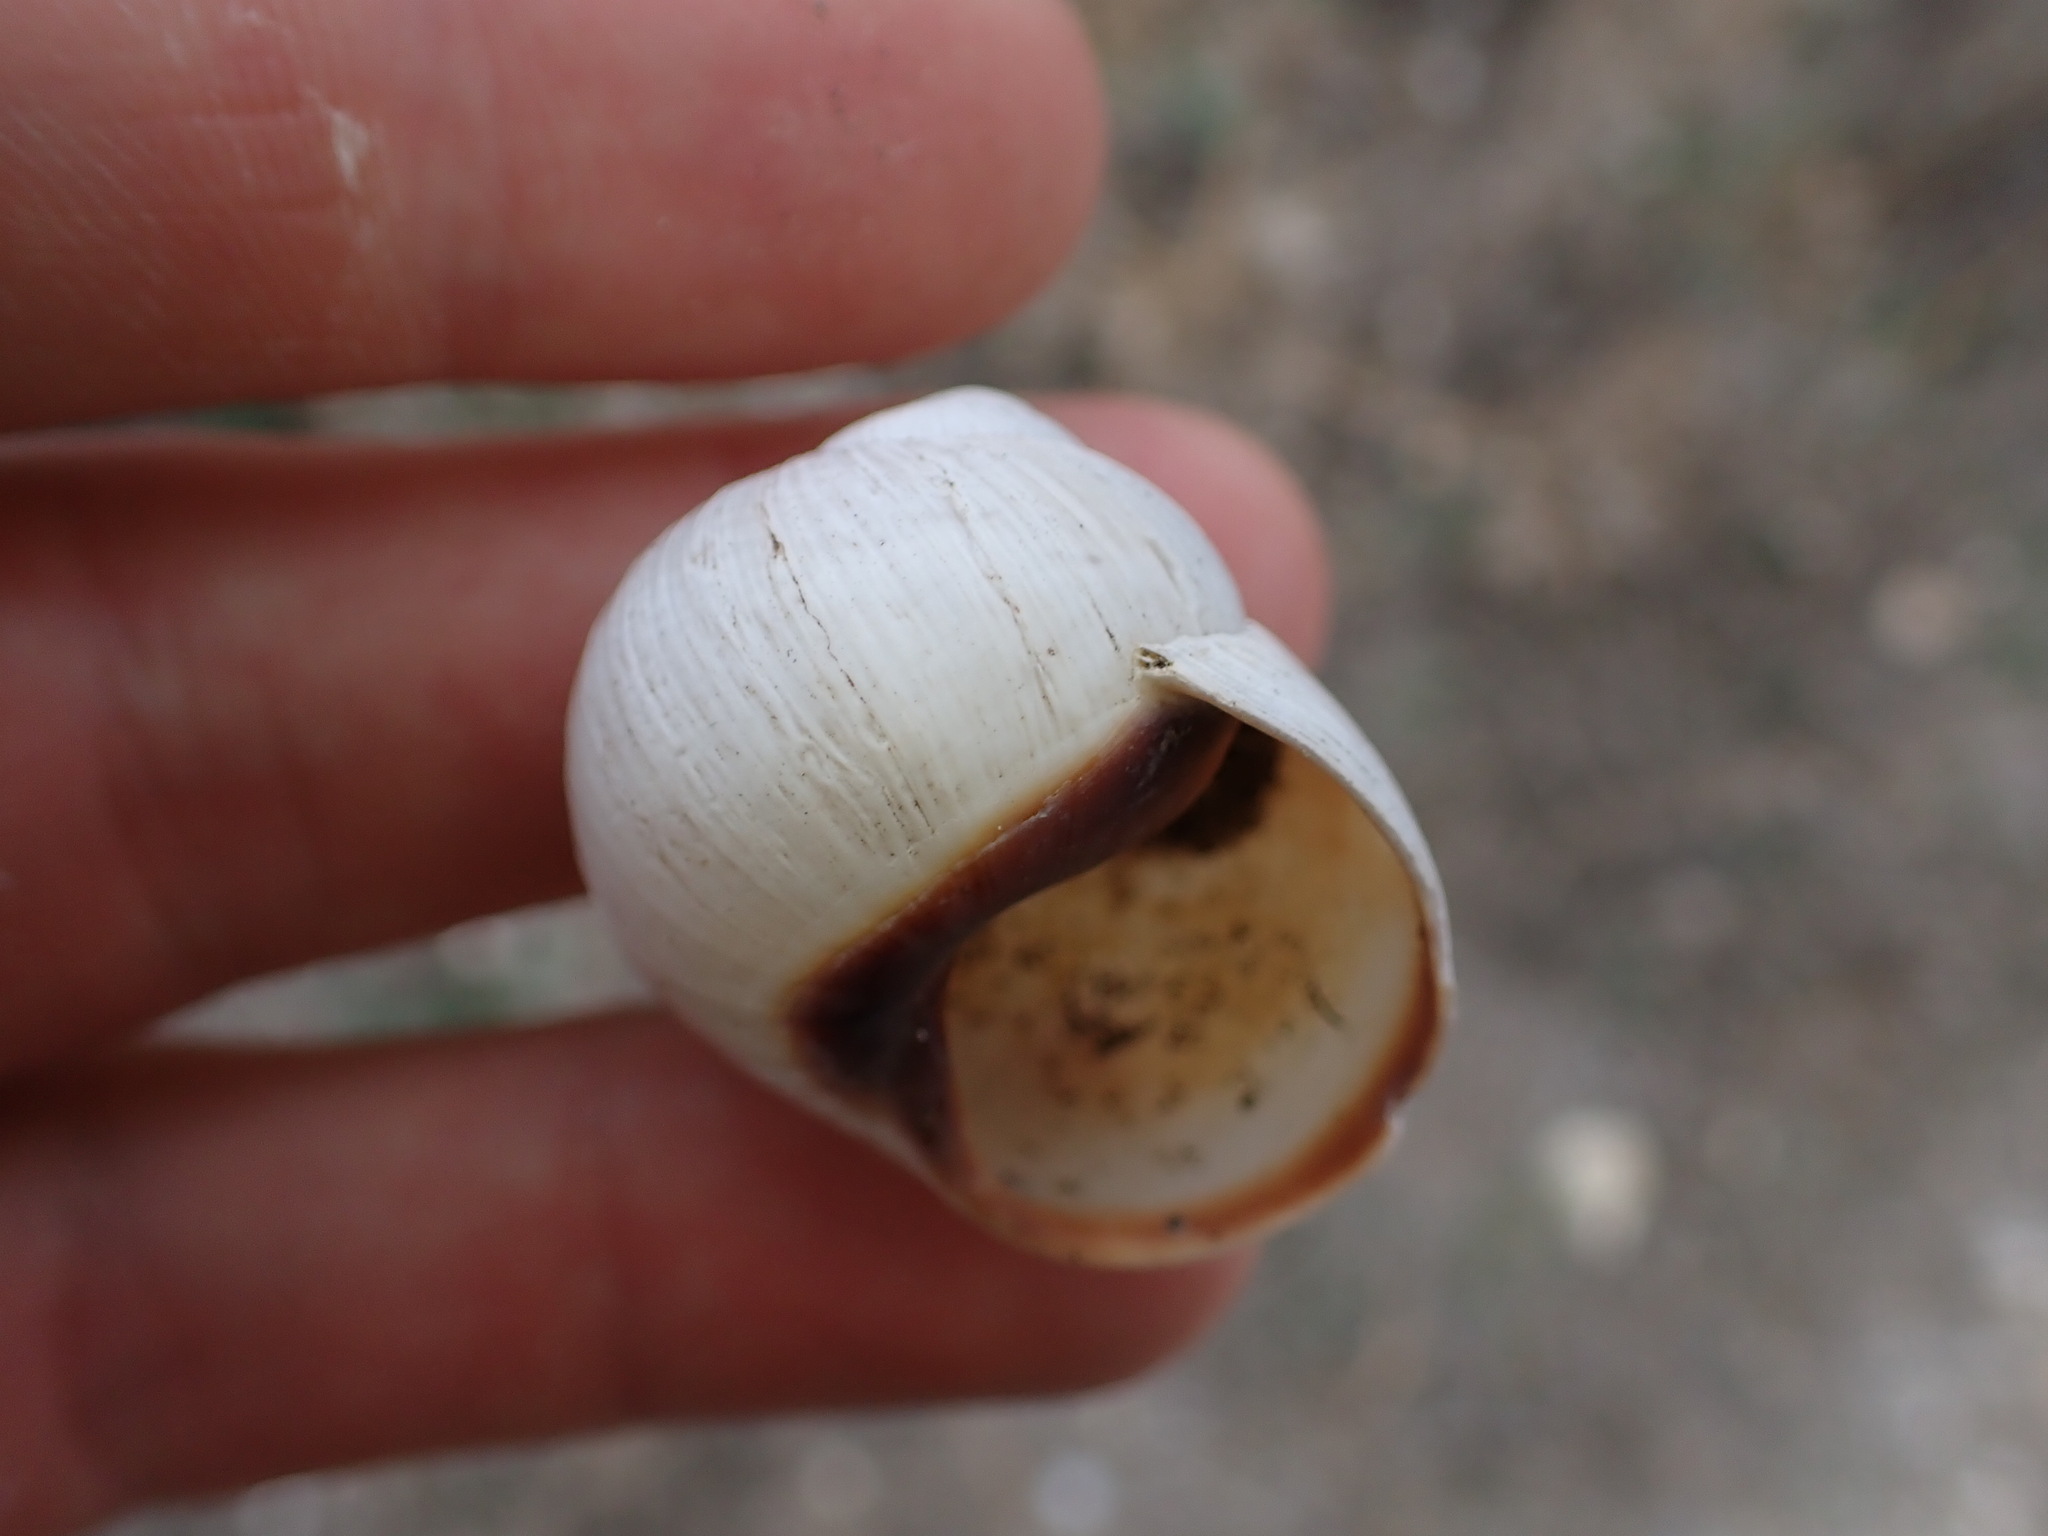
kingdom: Animalia
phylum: Mollusca
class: Gastropoda
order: Stylommatophora
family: Helicidae
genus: Helix
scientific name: Helix melanostoma
